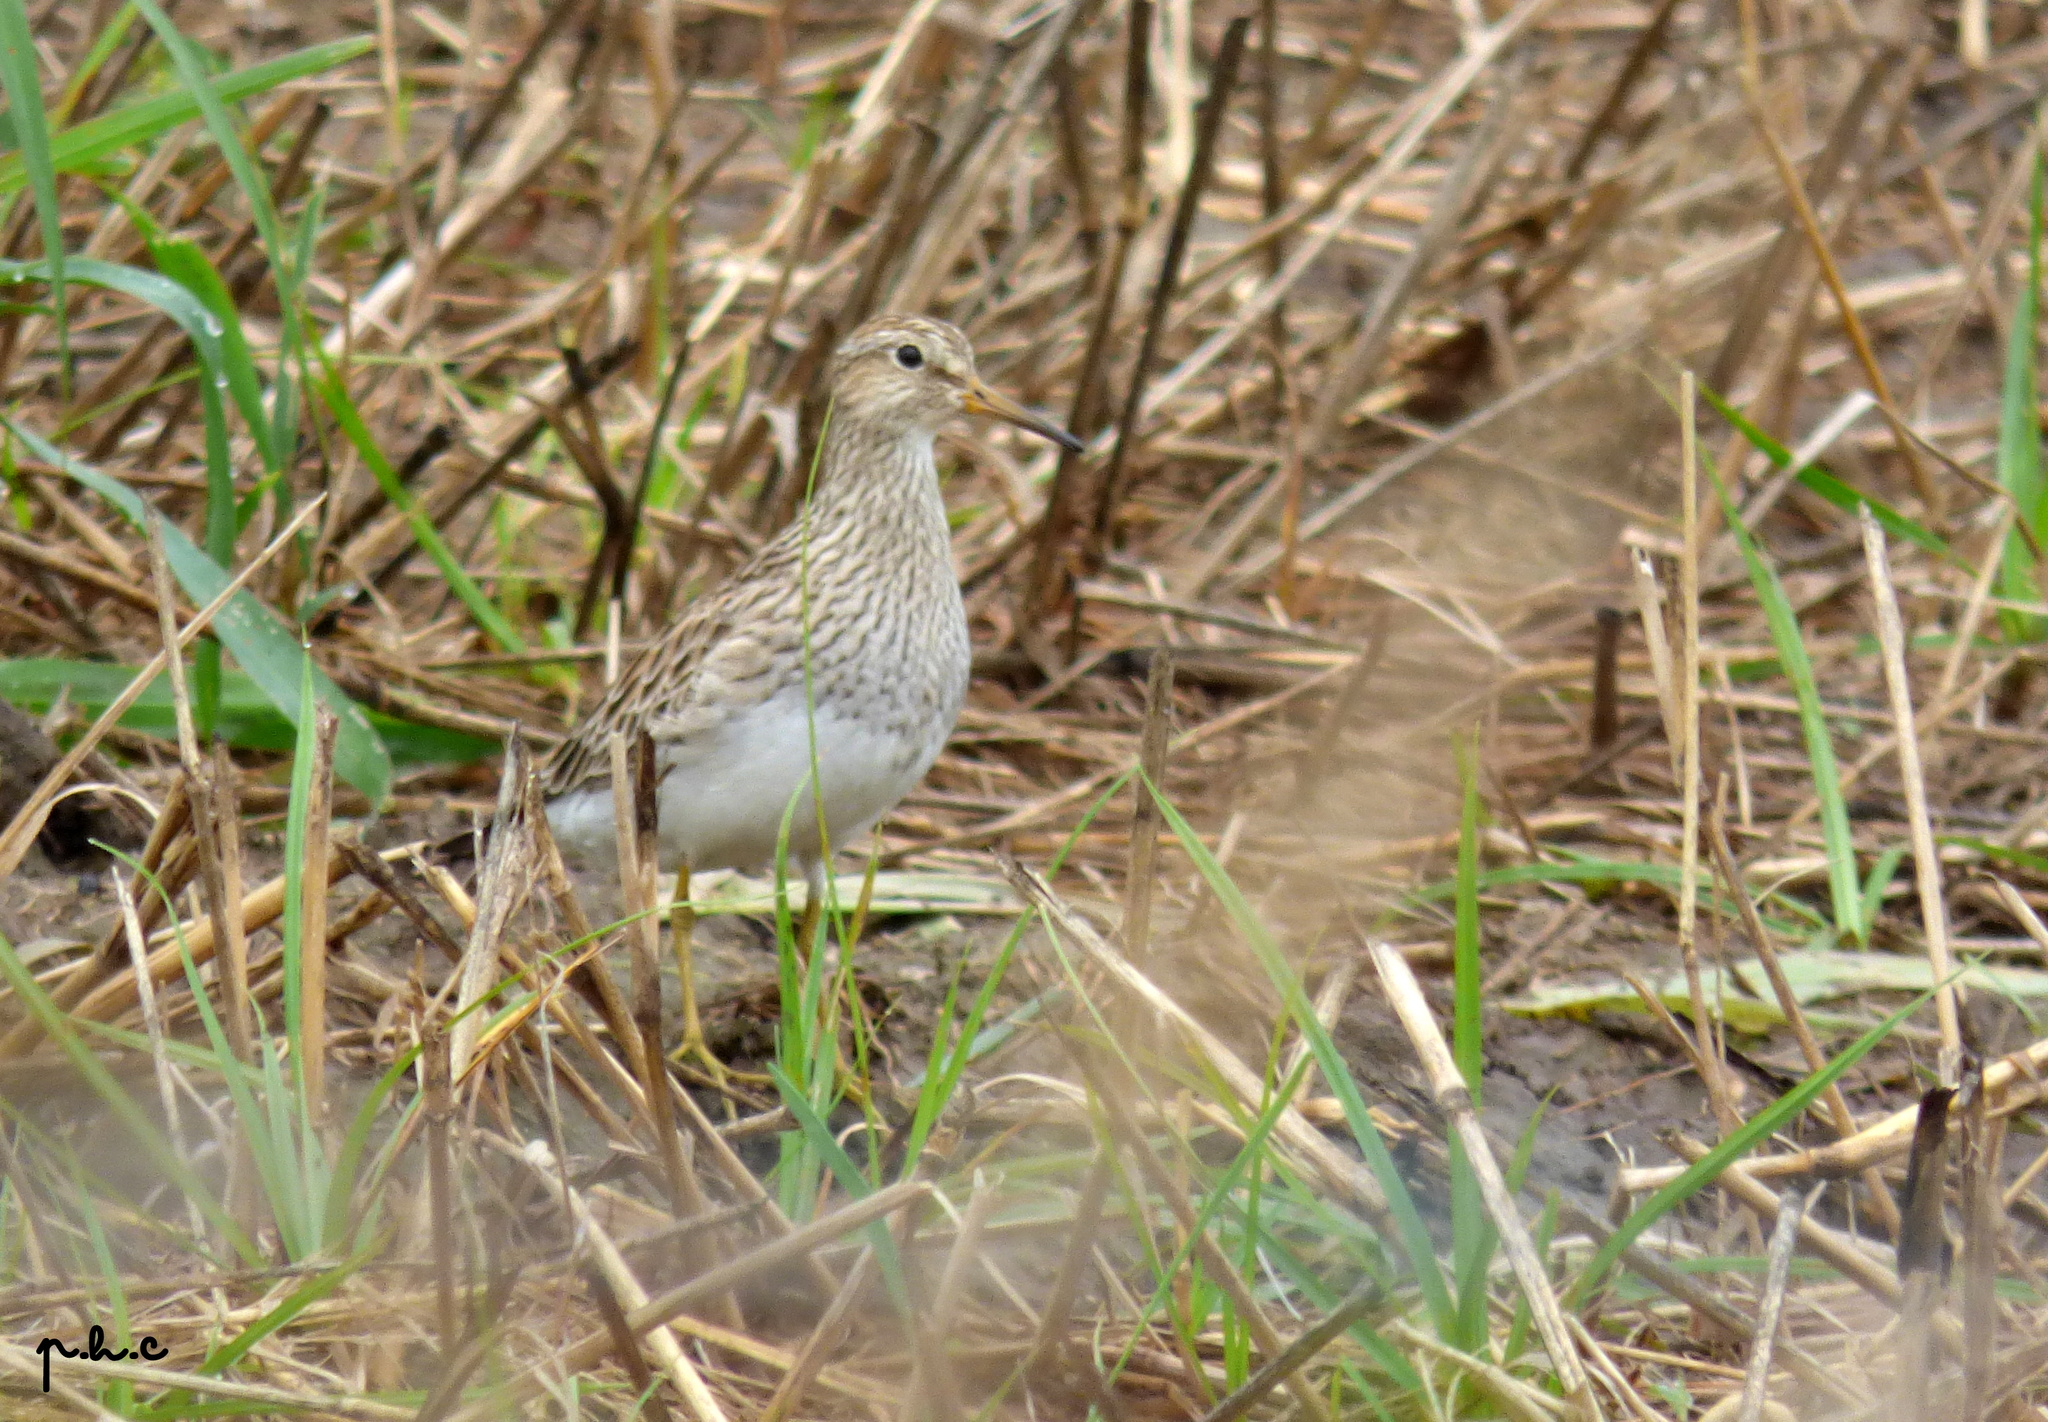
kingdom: Animalia
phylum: Chordata
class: Aves
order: Charadriiformes
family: Scolopacidae
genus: Calidris
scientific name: Calidris melanotos
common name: Pectoral sandpiper
